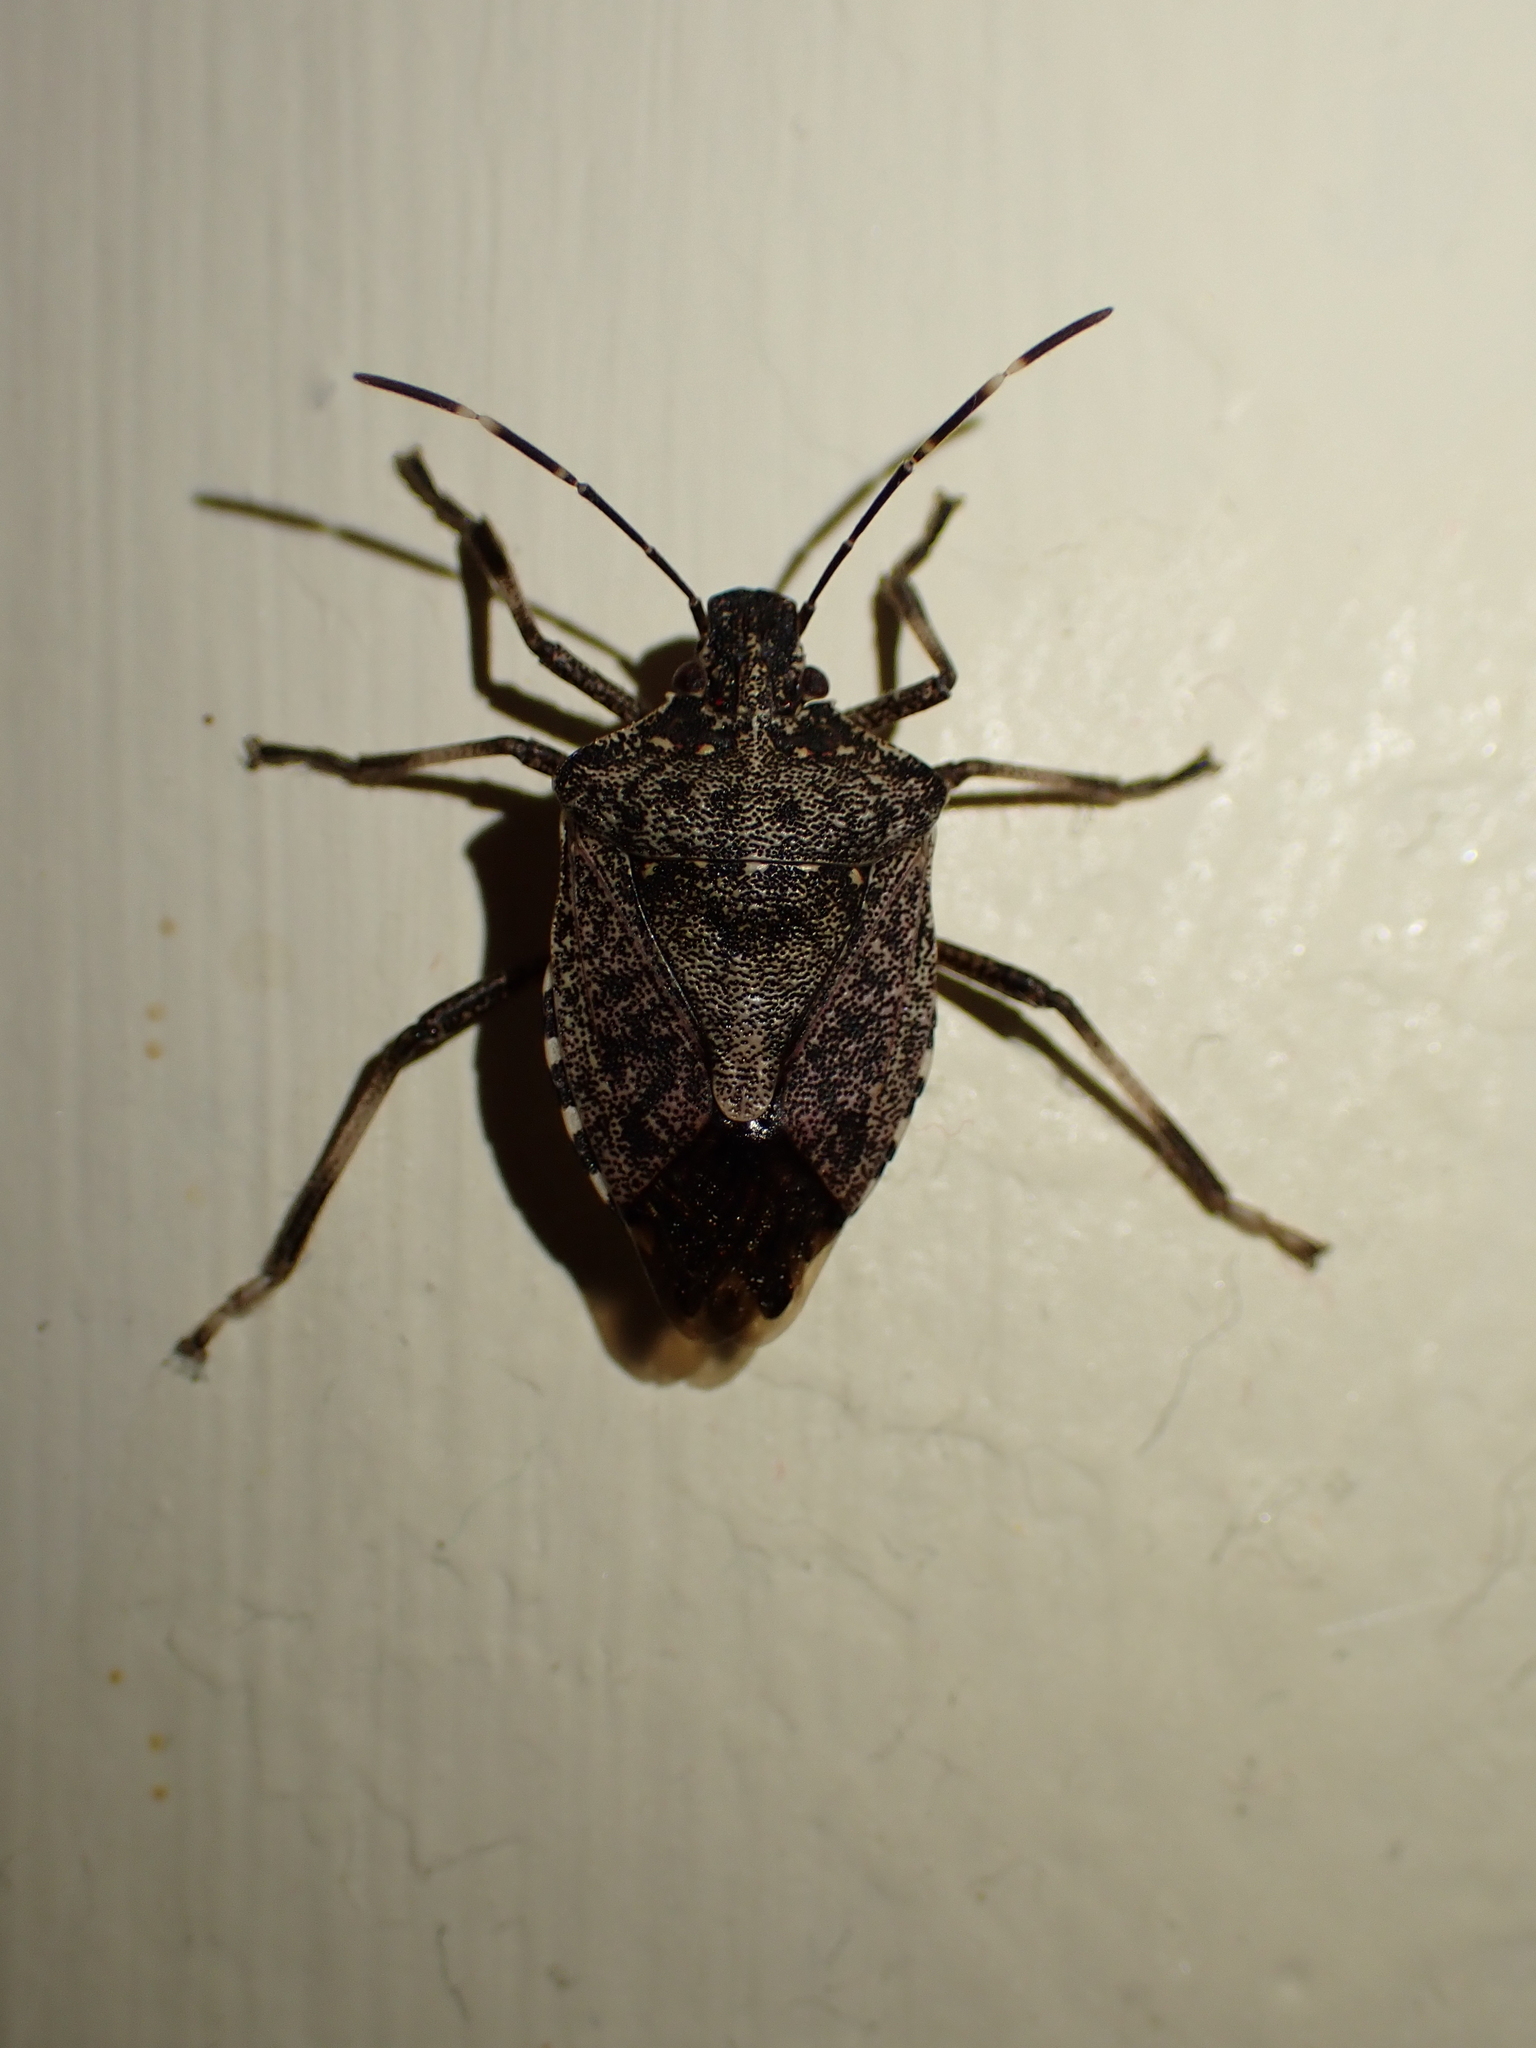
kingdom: Animalia
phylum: Arthropoda
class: Insecta
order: Hemiptera
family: Pentatomidae
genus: Halyomorpha
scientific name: Halyomorpha halys
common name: Brown marmorated stink bug
